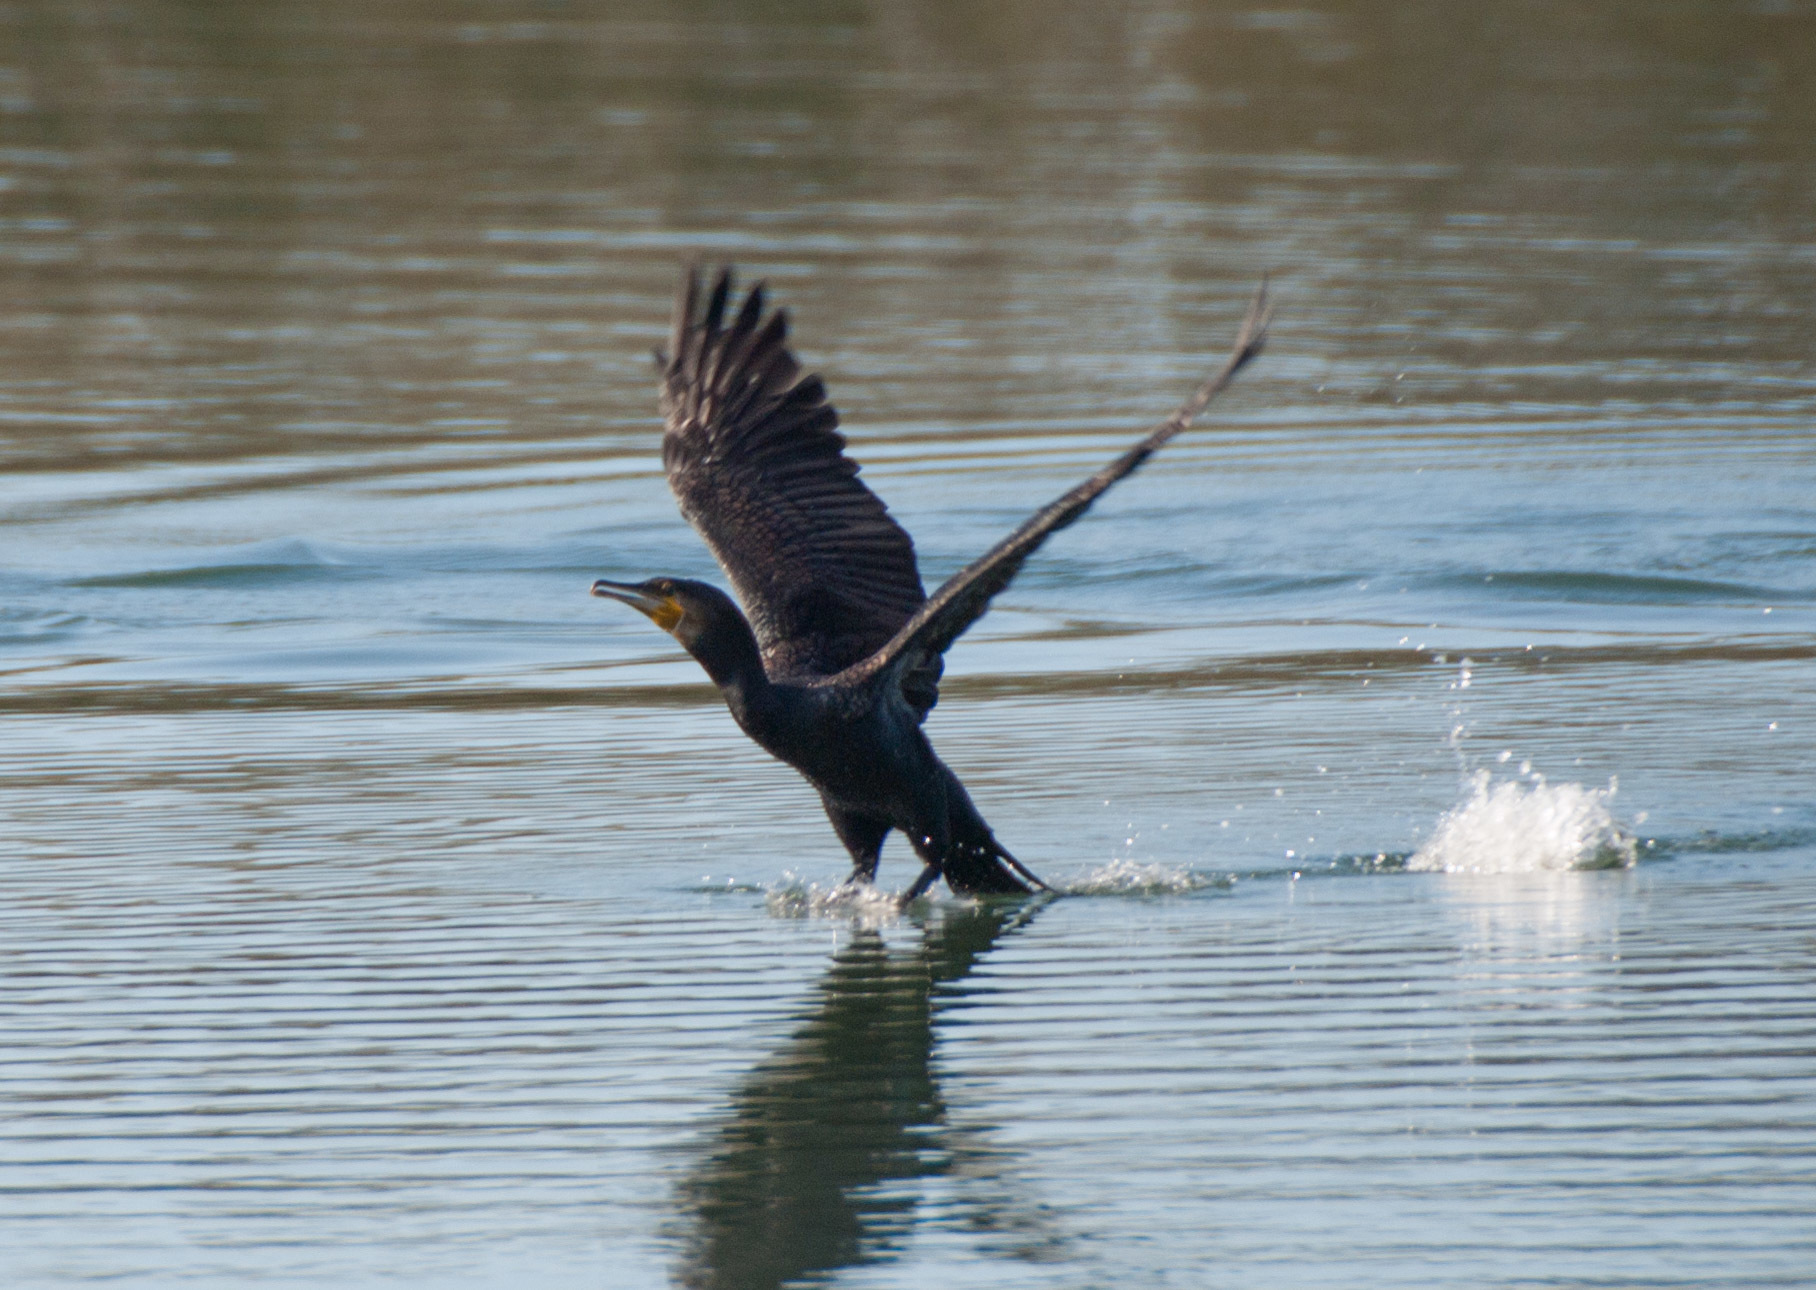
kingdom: Animalia
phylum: Chordata
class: Aves
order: Suliformes
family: Phalacrocoracidae
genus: Phalacrocorax
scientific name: Phalacrocorax sulcirostris
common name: Little black cormorant
